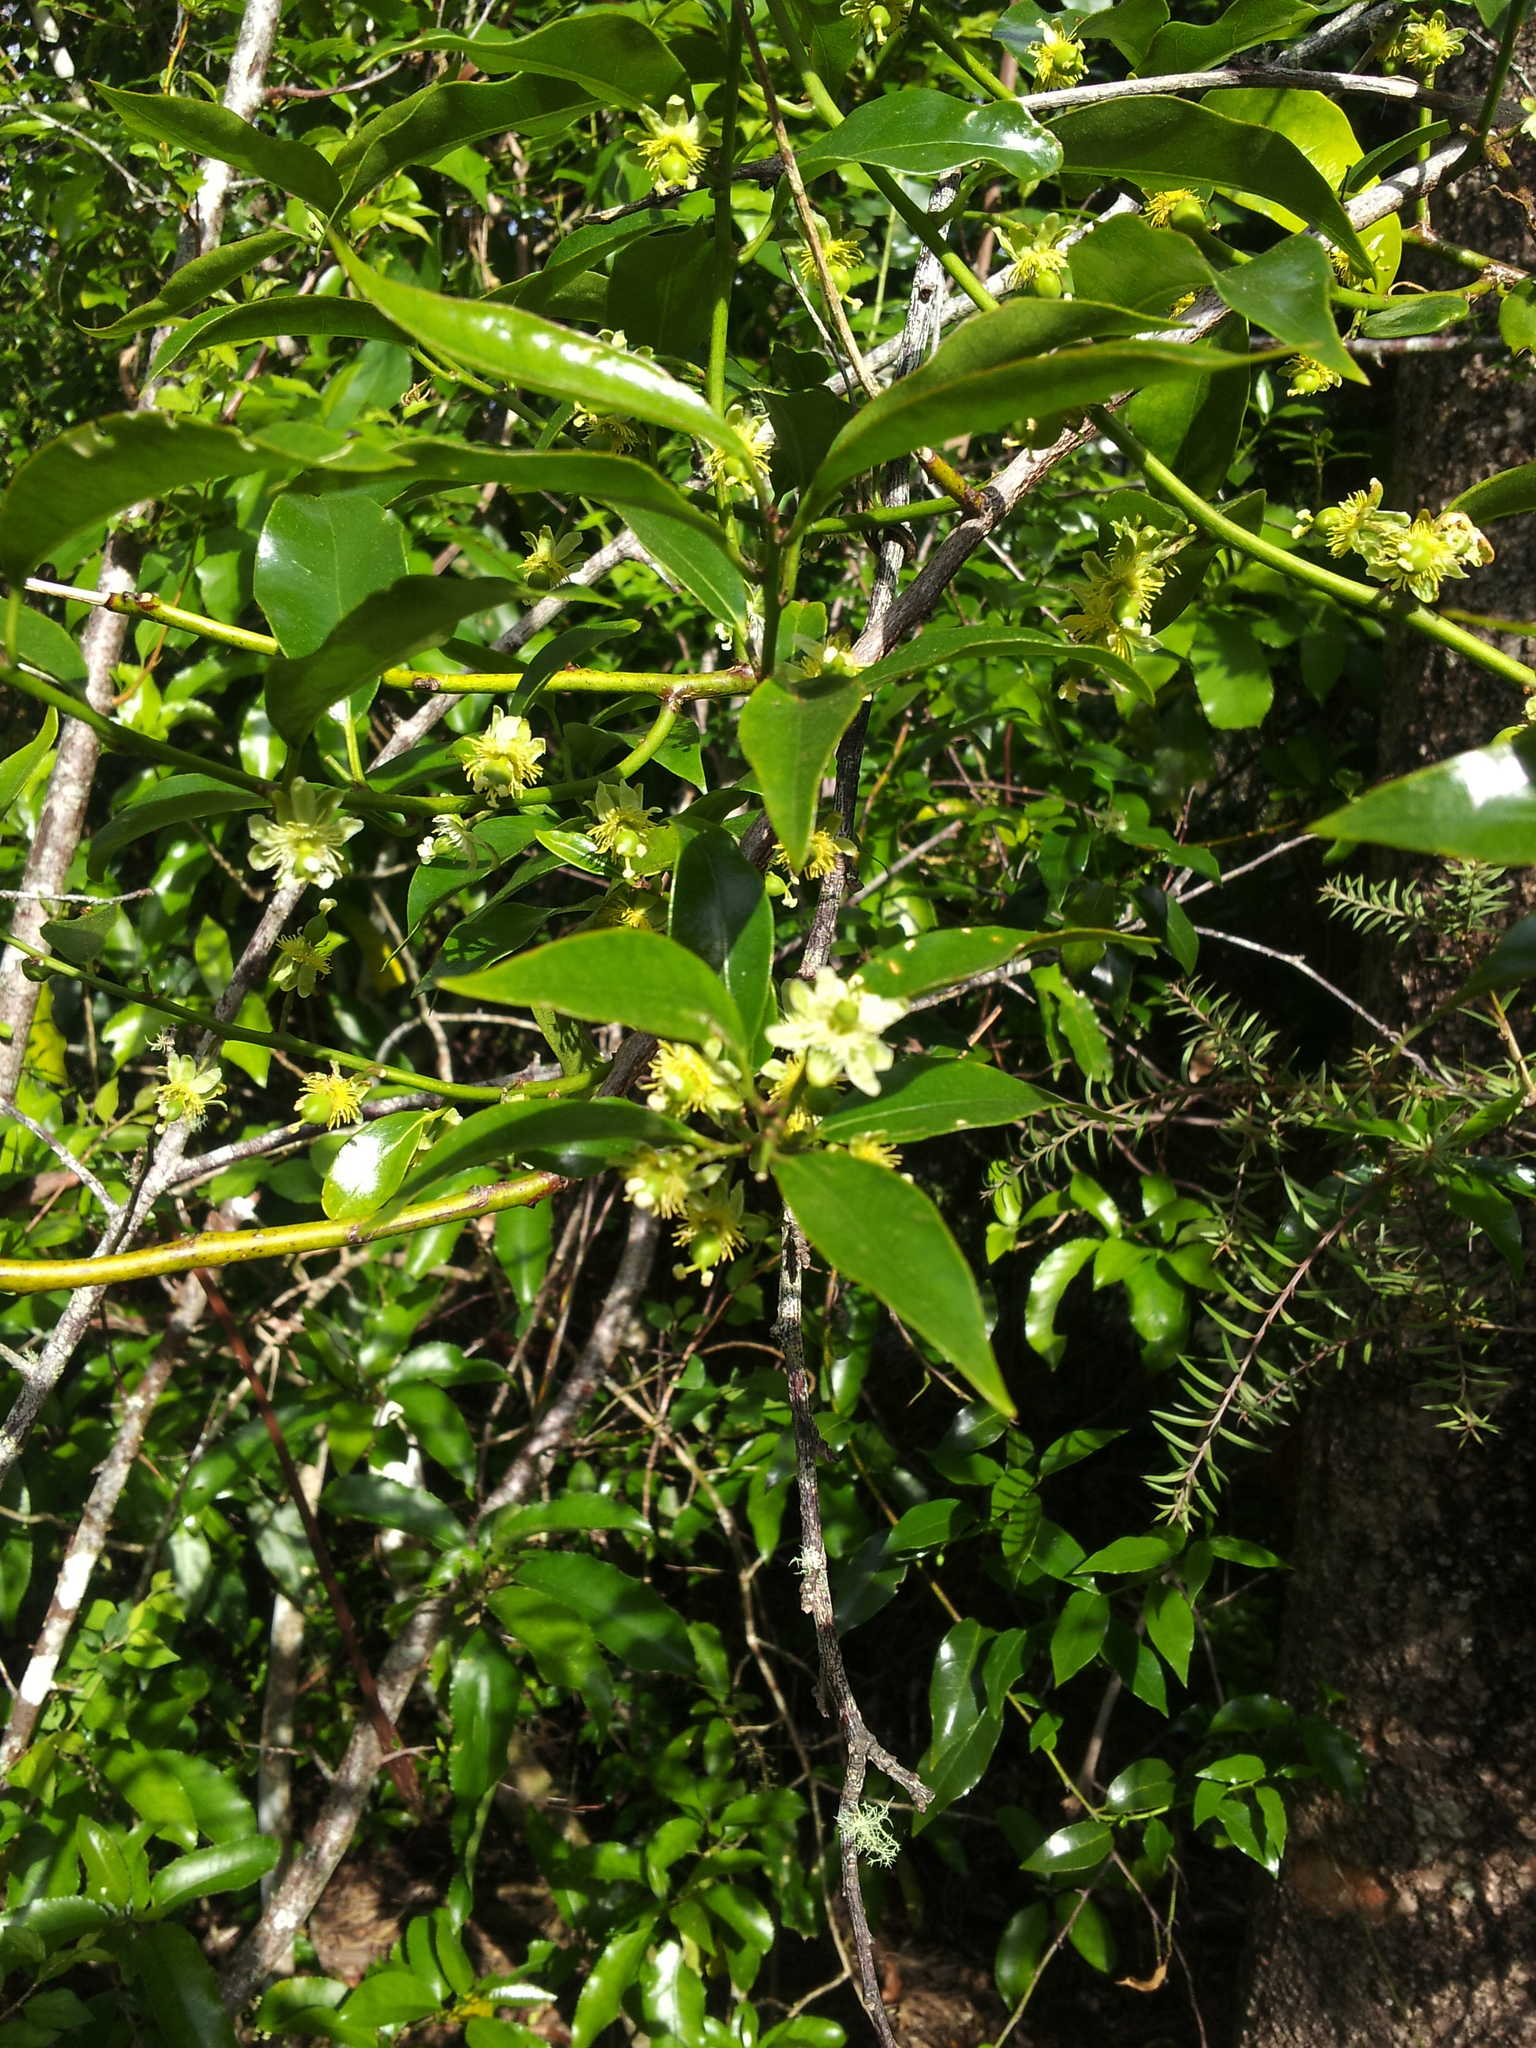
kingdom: Plantae
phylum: Tracheophyta
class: Magnoliopsida
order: Malpighiales
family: Passifloraceae
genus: Passiflora
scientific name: Passiflora tetrandra
